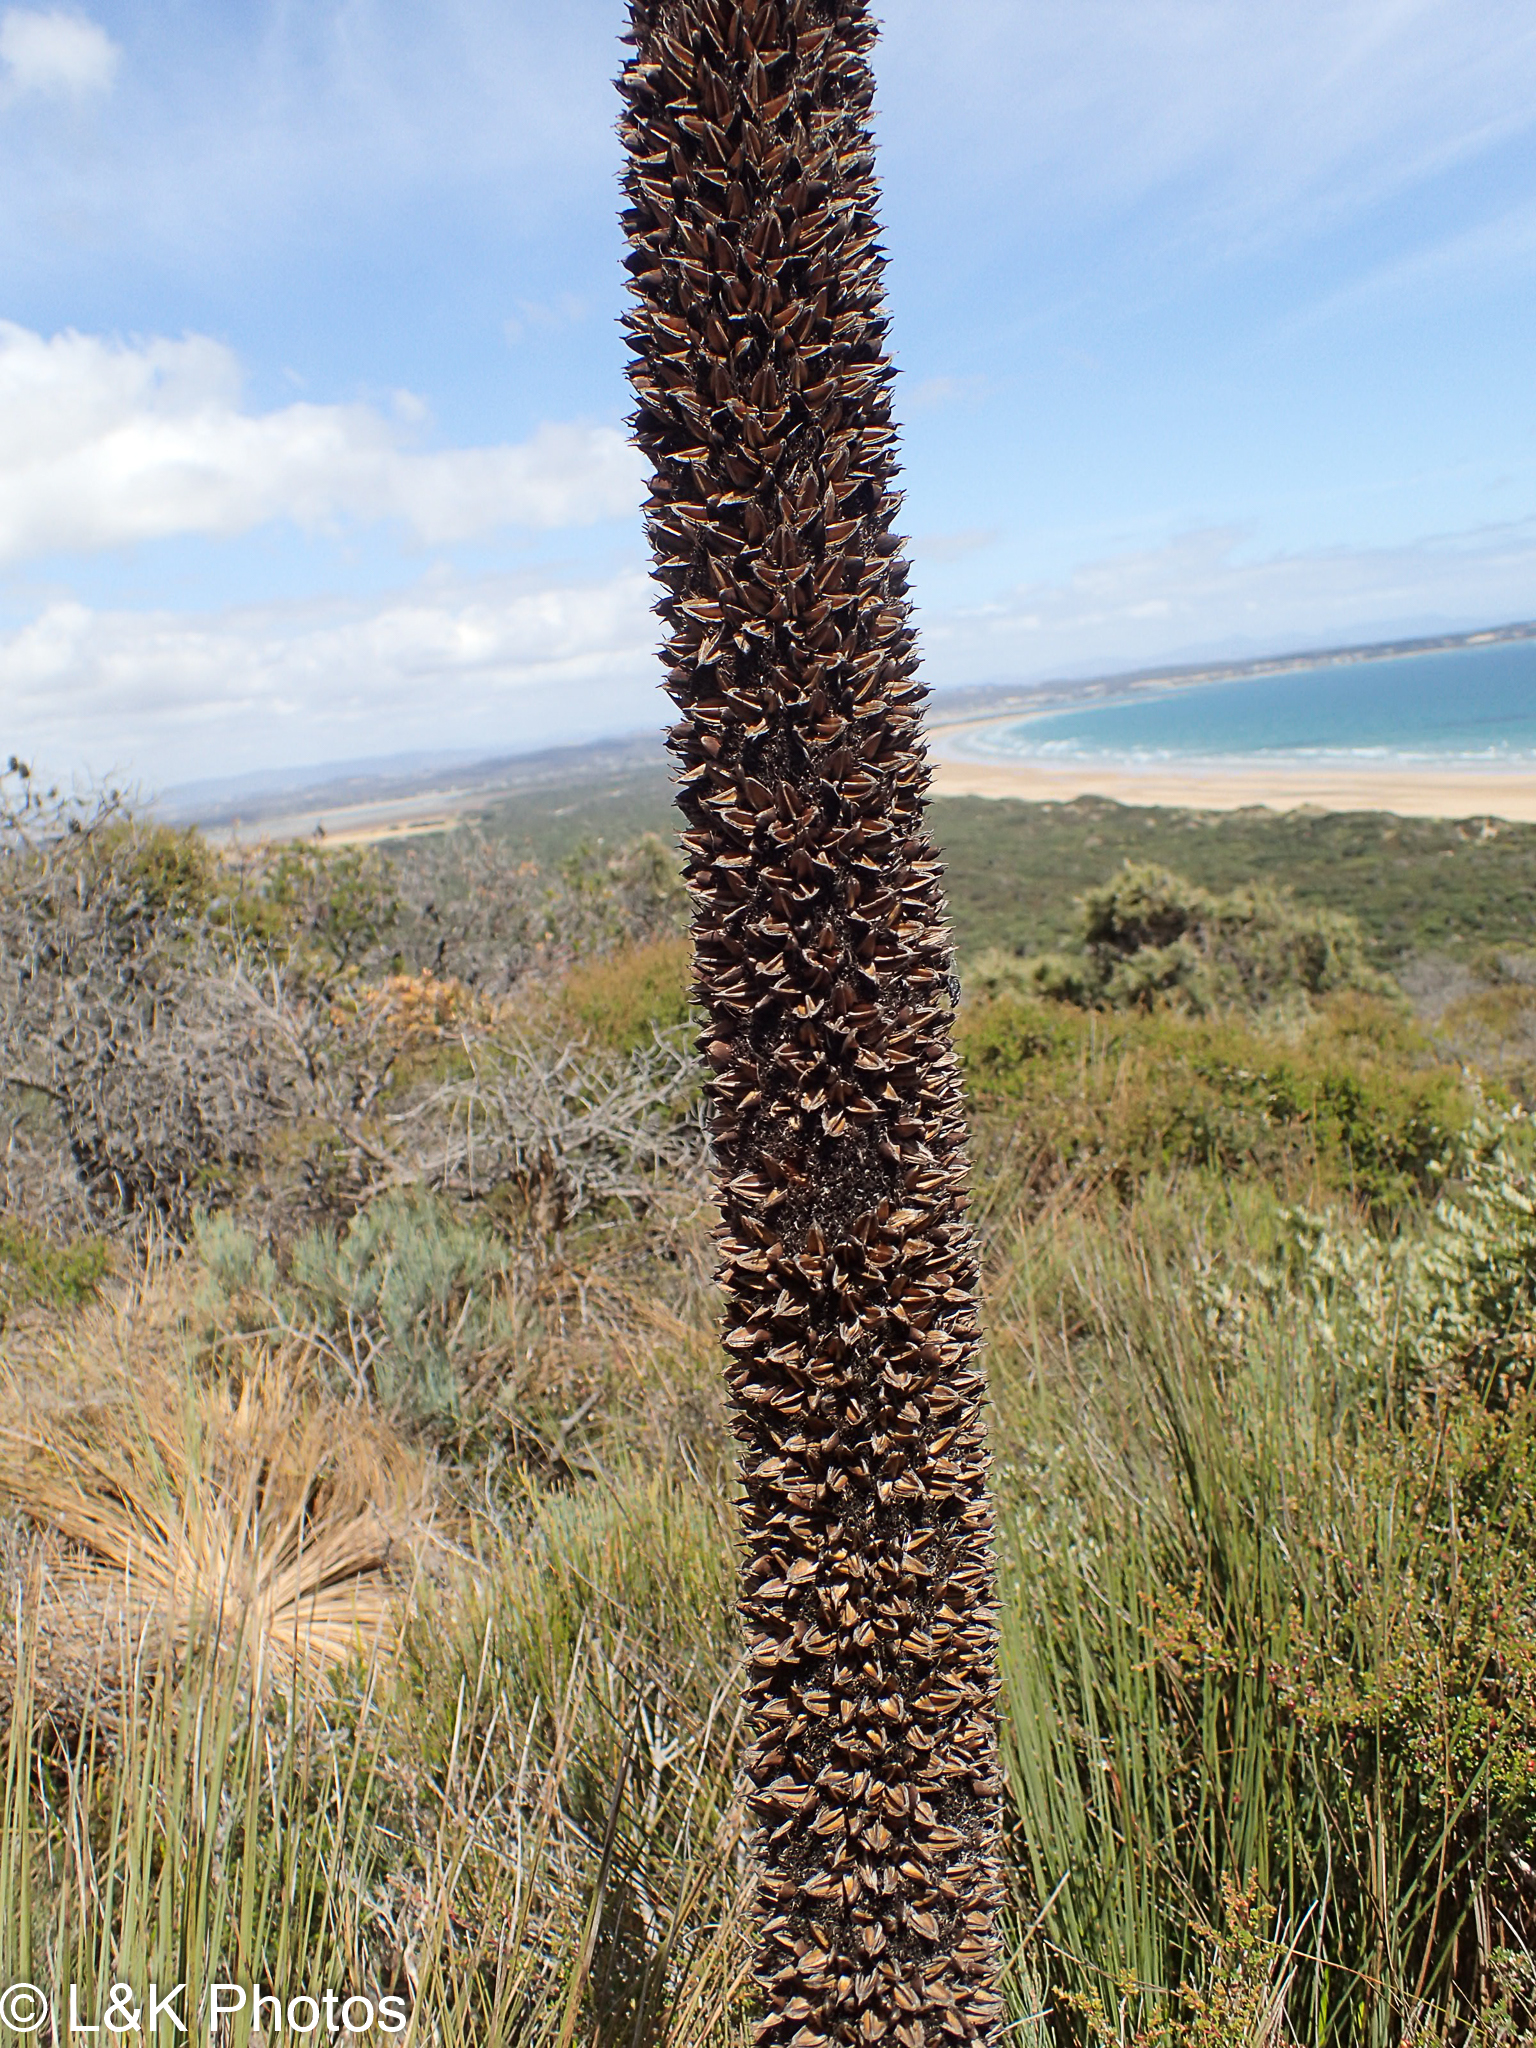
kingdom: Plantae
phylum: Tracheophyta
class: Liliopsida
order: Asparagales
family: Asphodelaceae
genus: Xanthorrhoea
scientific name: Xanthorrhoea australis
